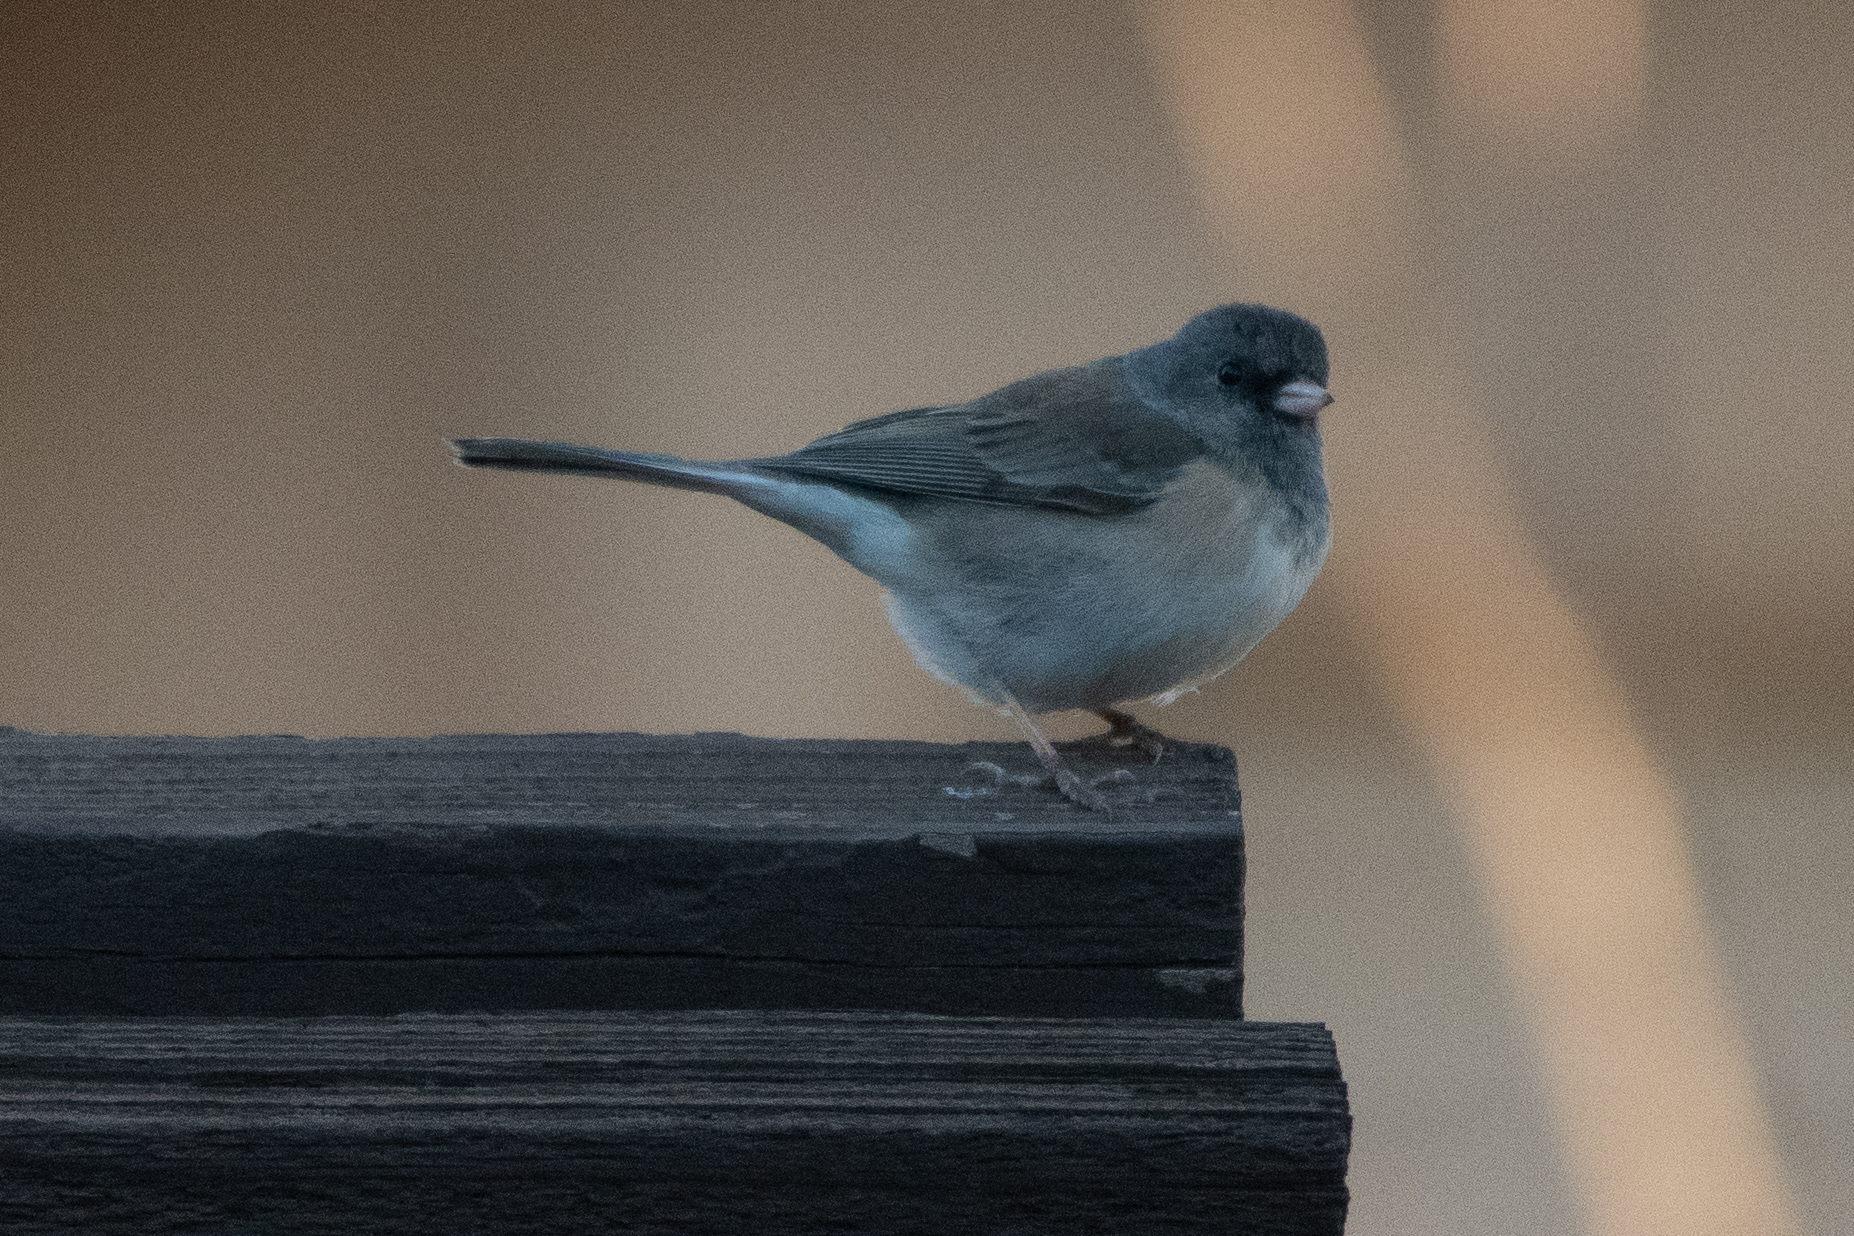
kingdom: Animalia
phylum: Chordata
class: Aves
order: Passeriformes
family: Passerellidae
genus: Junco
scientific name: Junco hyemalis
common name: Dark-eyed junco
